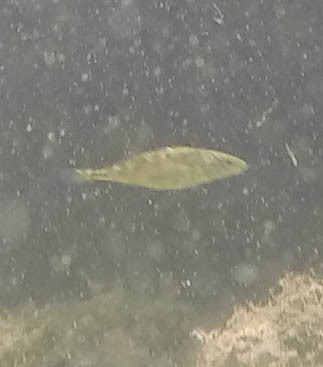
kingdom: Animalia
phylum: Chordata
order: Gasterosteiformes
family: Gasterosteidae
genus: Gasterosteus
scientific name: Gasterosteus aculeatus
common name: Three-spined stickleback
